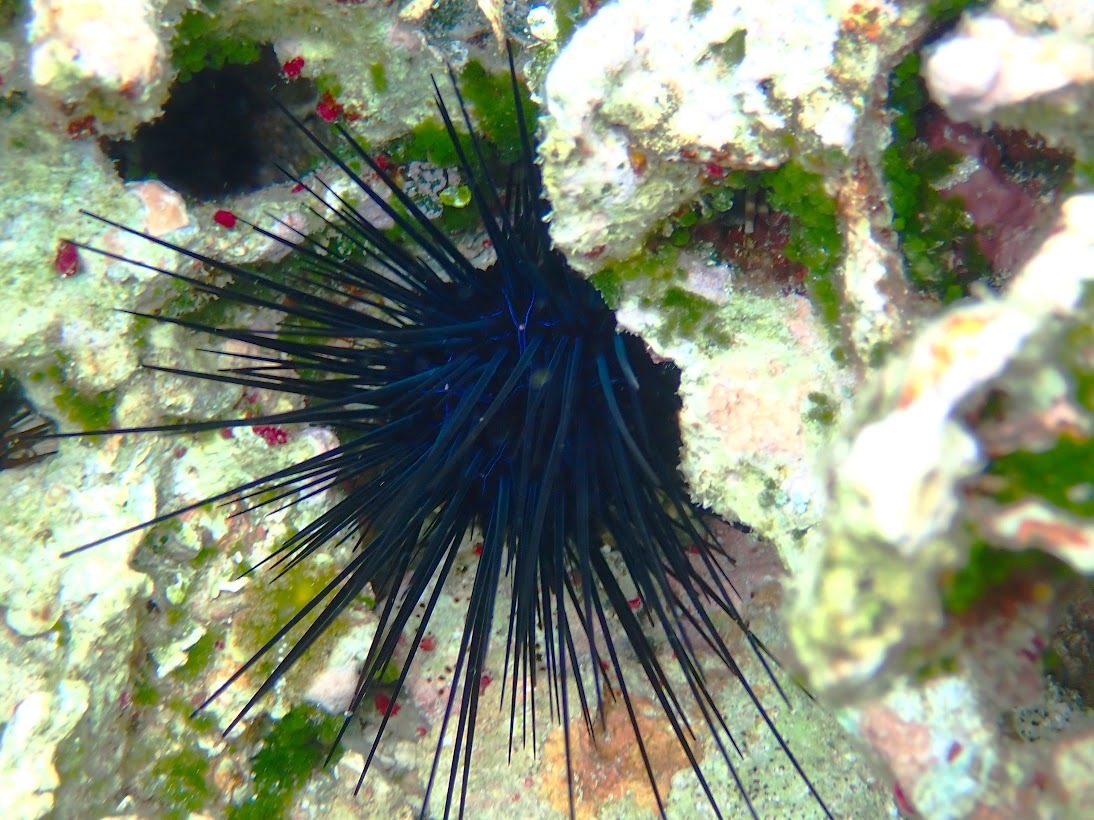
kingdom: Animalia
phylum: Echinodermata
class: Echinoidea
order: Diadematoida
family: Diadematidae
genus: Diadema
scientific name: Diadema antillarum
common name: Spiny urchin
